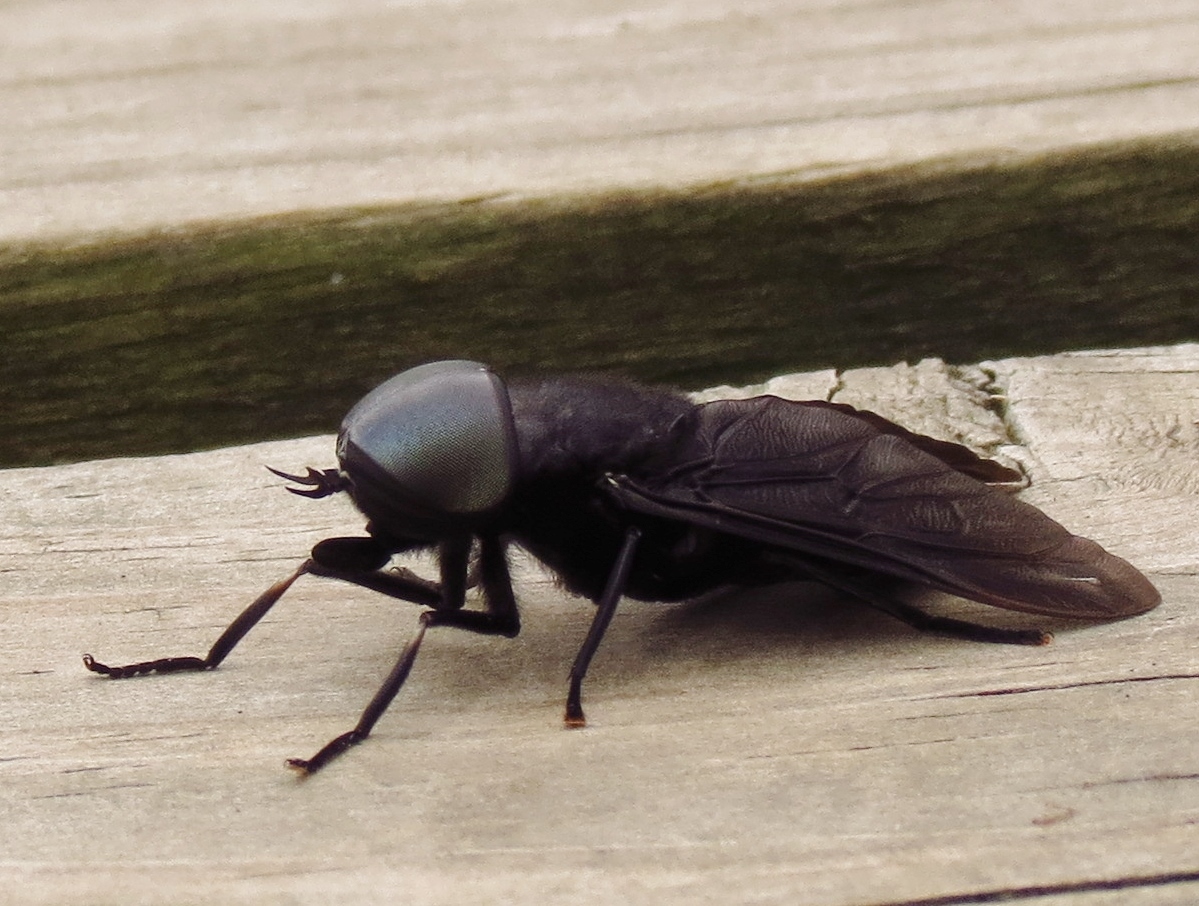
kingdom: Animalia
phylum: Arthropoda
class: Insecta
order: Diptera
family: Tabanidae
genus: Tabanus
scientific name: Tabanus atratus
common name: Black horse fly
